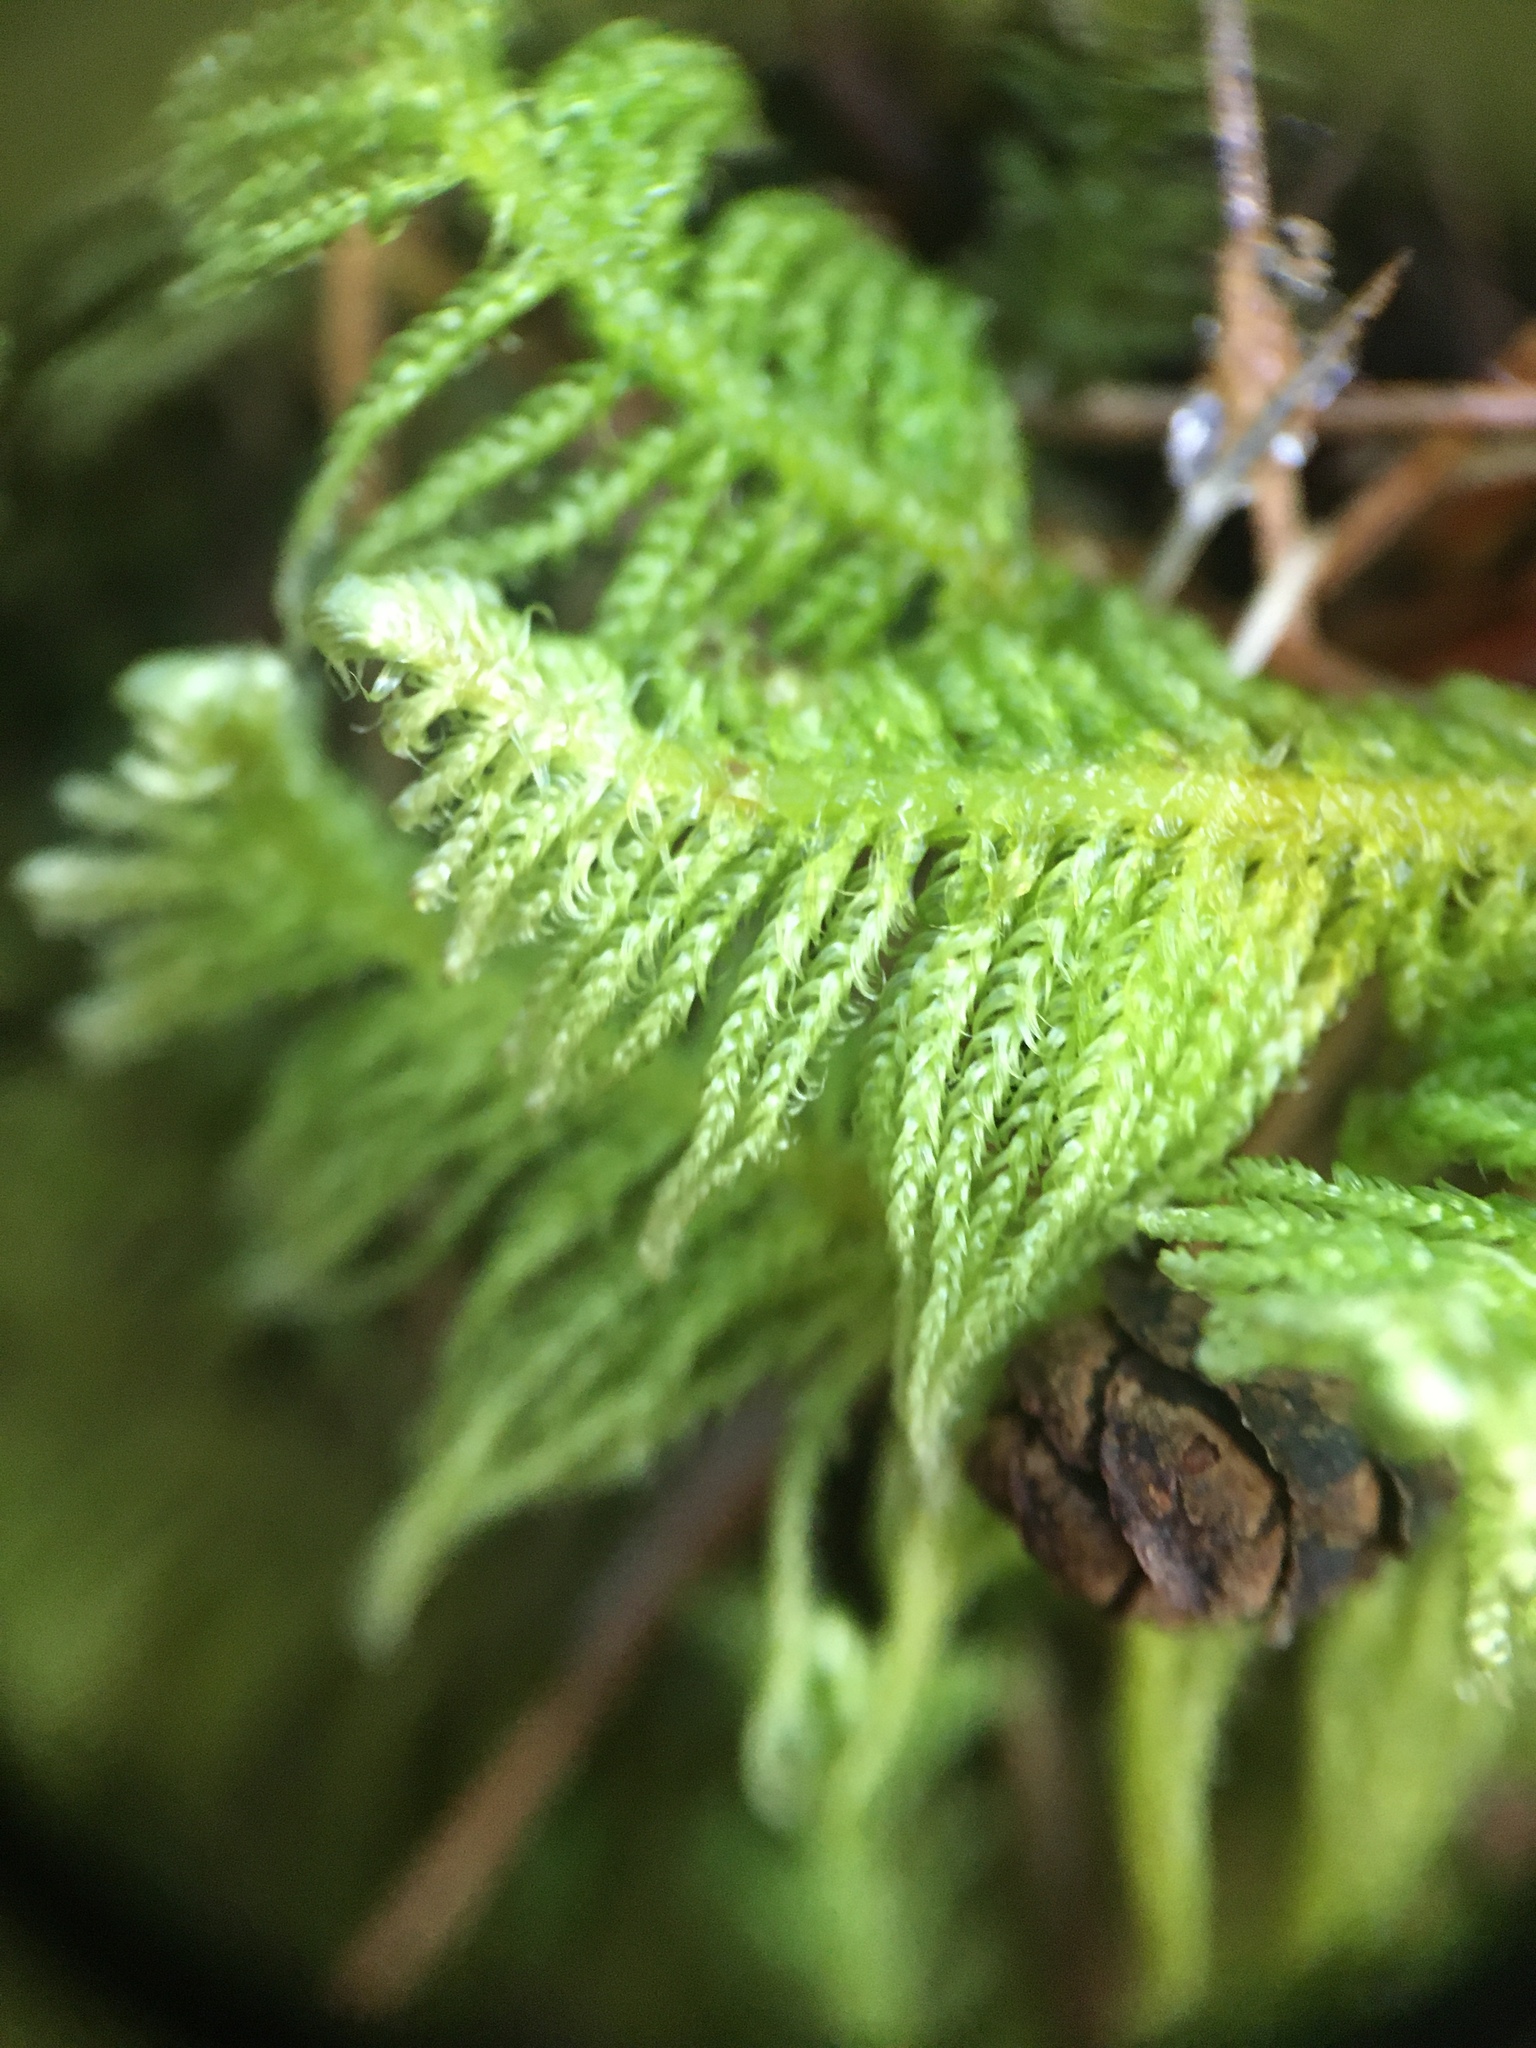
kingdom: Plantae
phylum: Bryophyta
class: Bryopsida
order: Hypnales
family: Pylaisiaceae
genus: Ptilium
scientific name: Ptilium crista-castrensis
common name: Knight's plume moss
